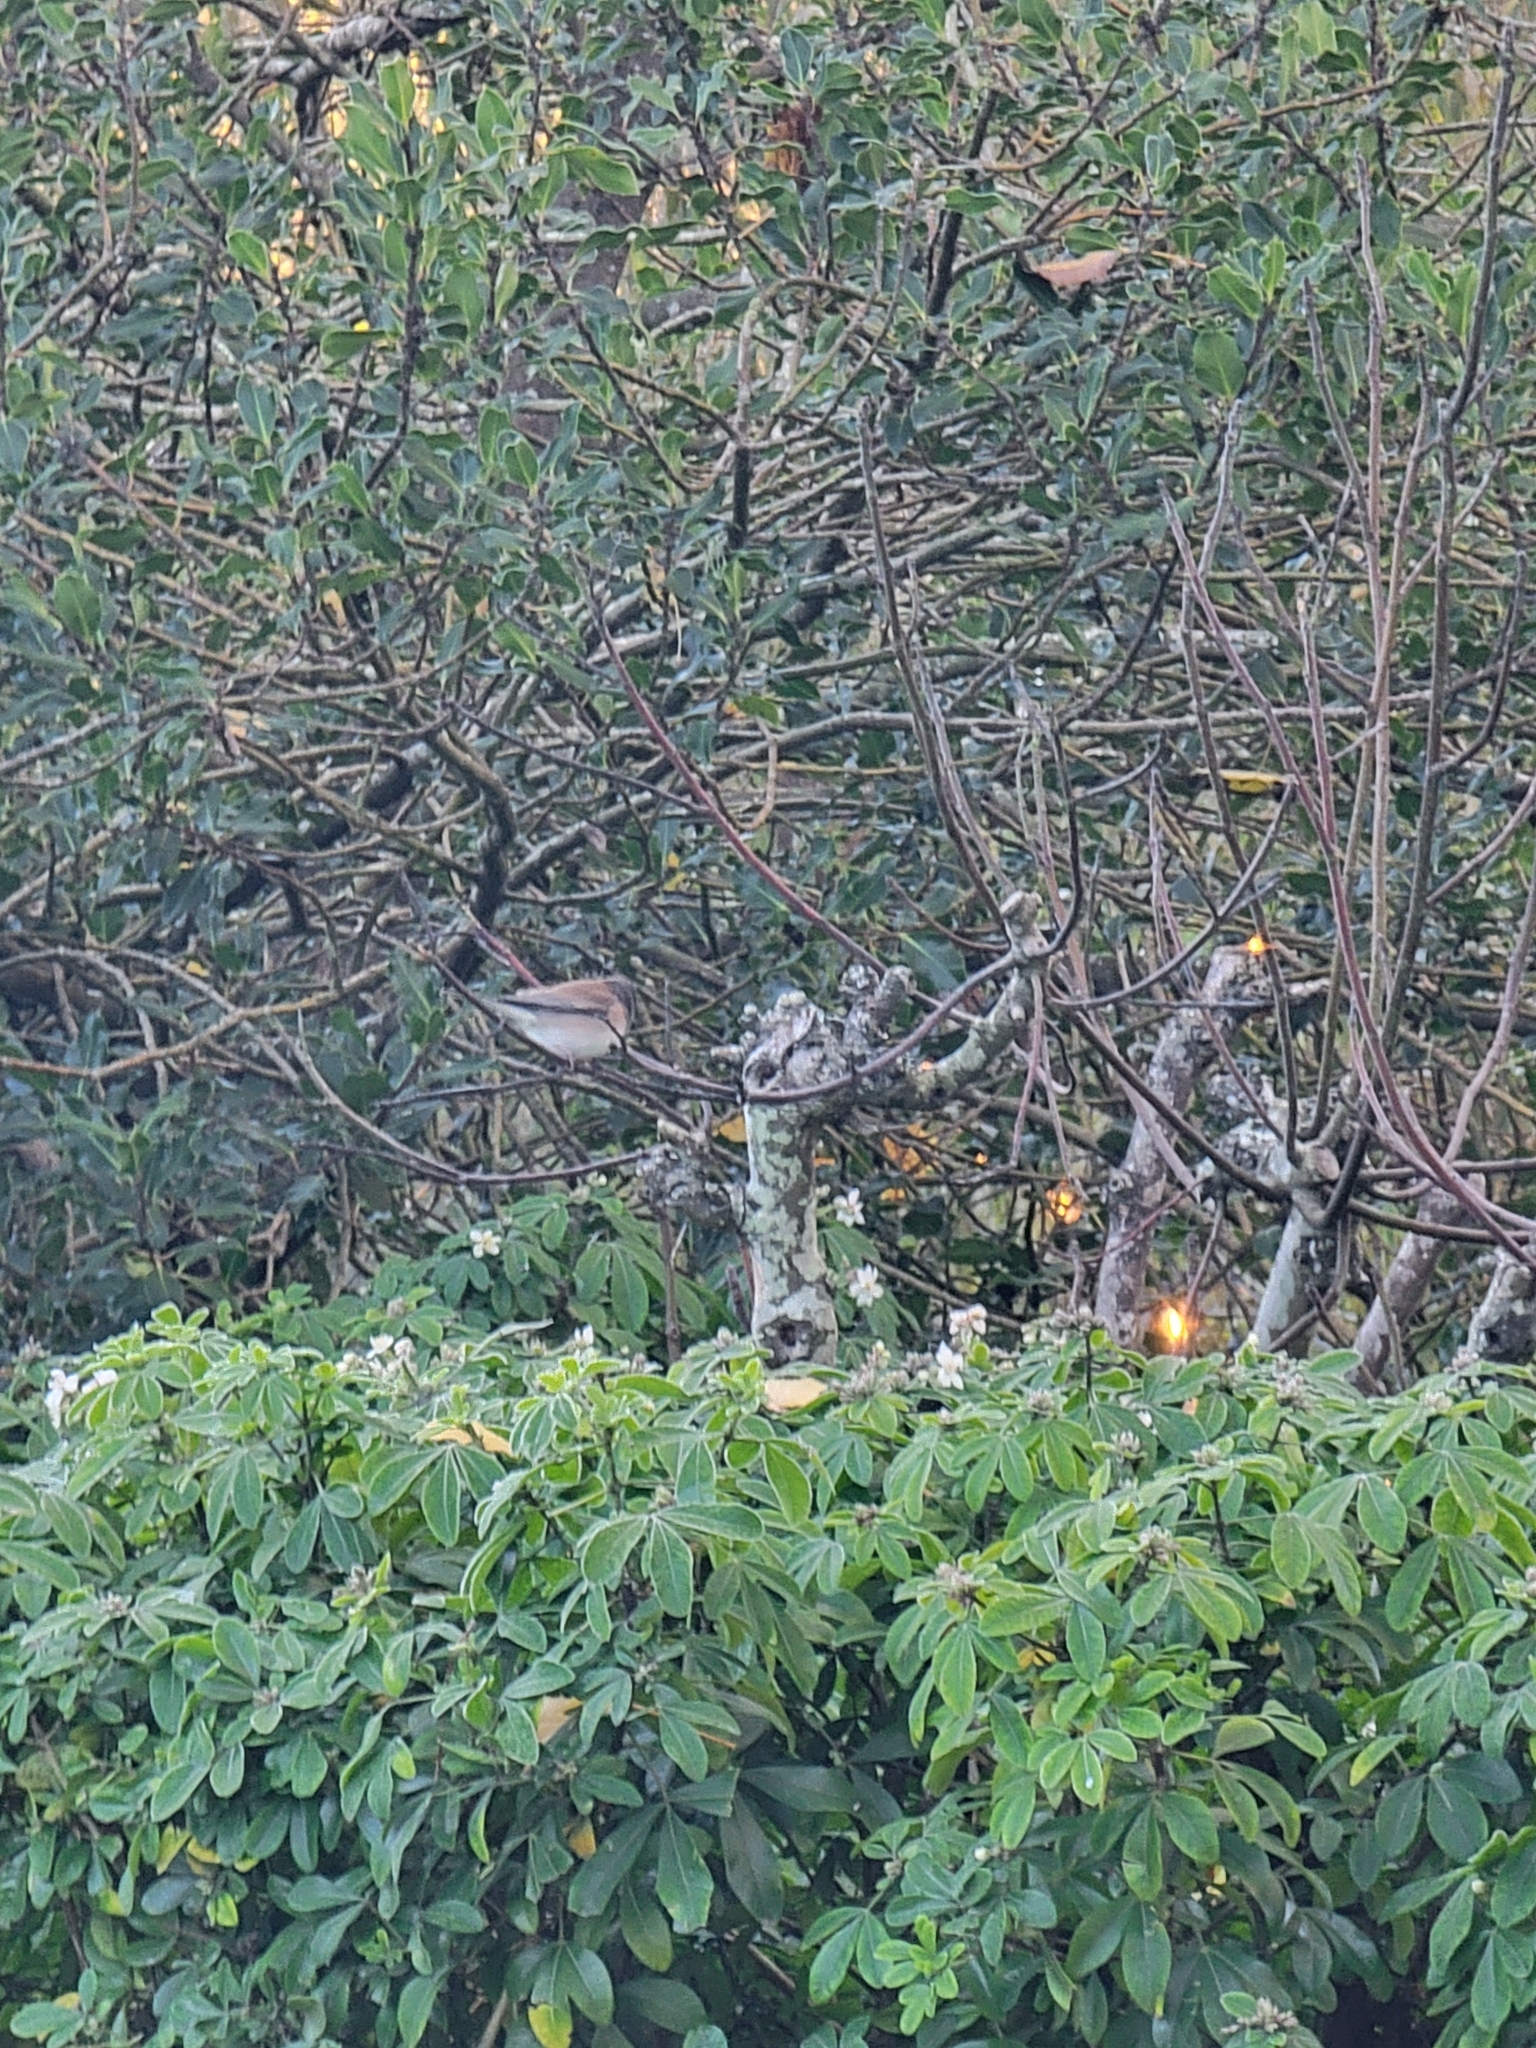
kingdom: Animalia
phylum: Chordata
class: Aves
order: Passeriformes
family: Passerellidae
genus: Junco
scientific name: Junco hyemalis
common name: Dark-eyed junco
